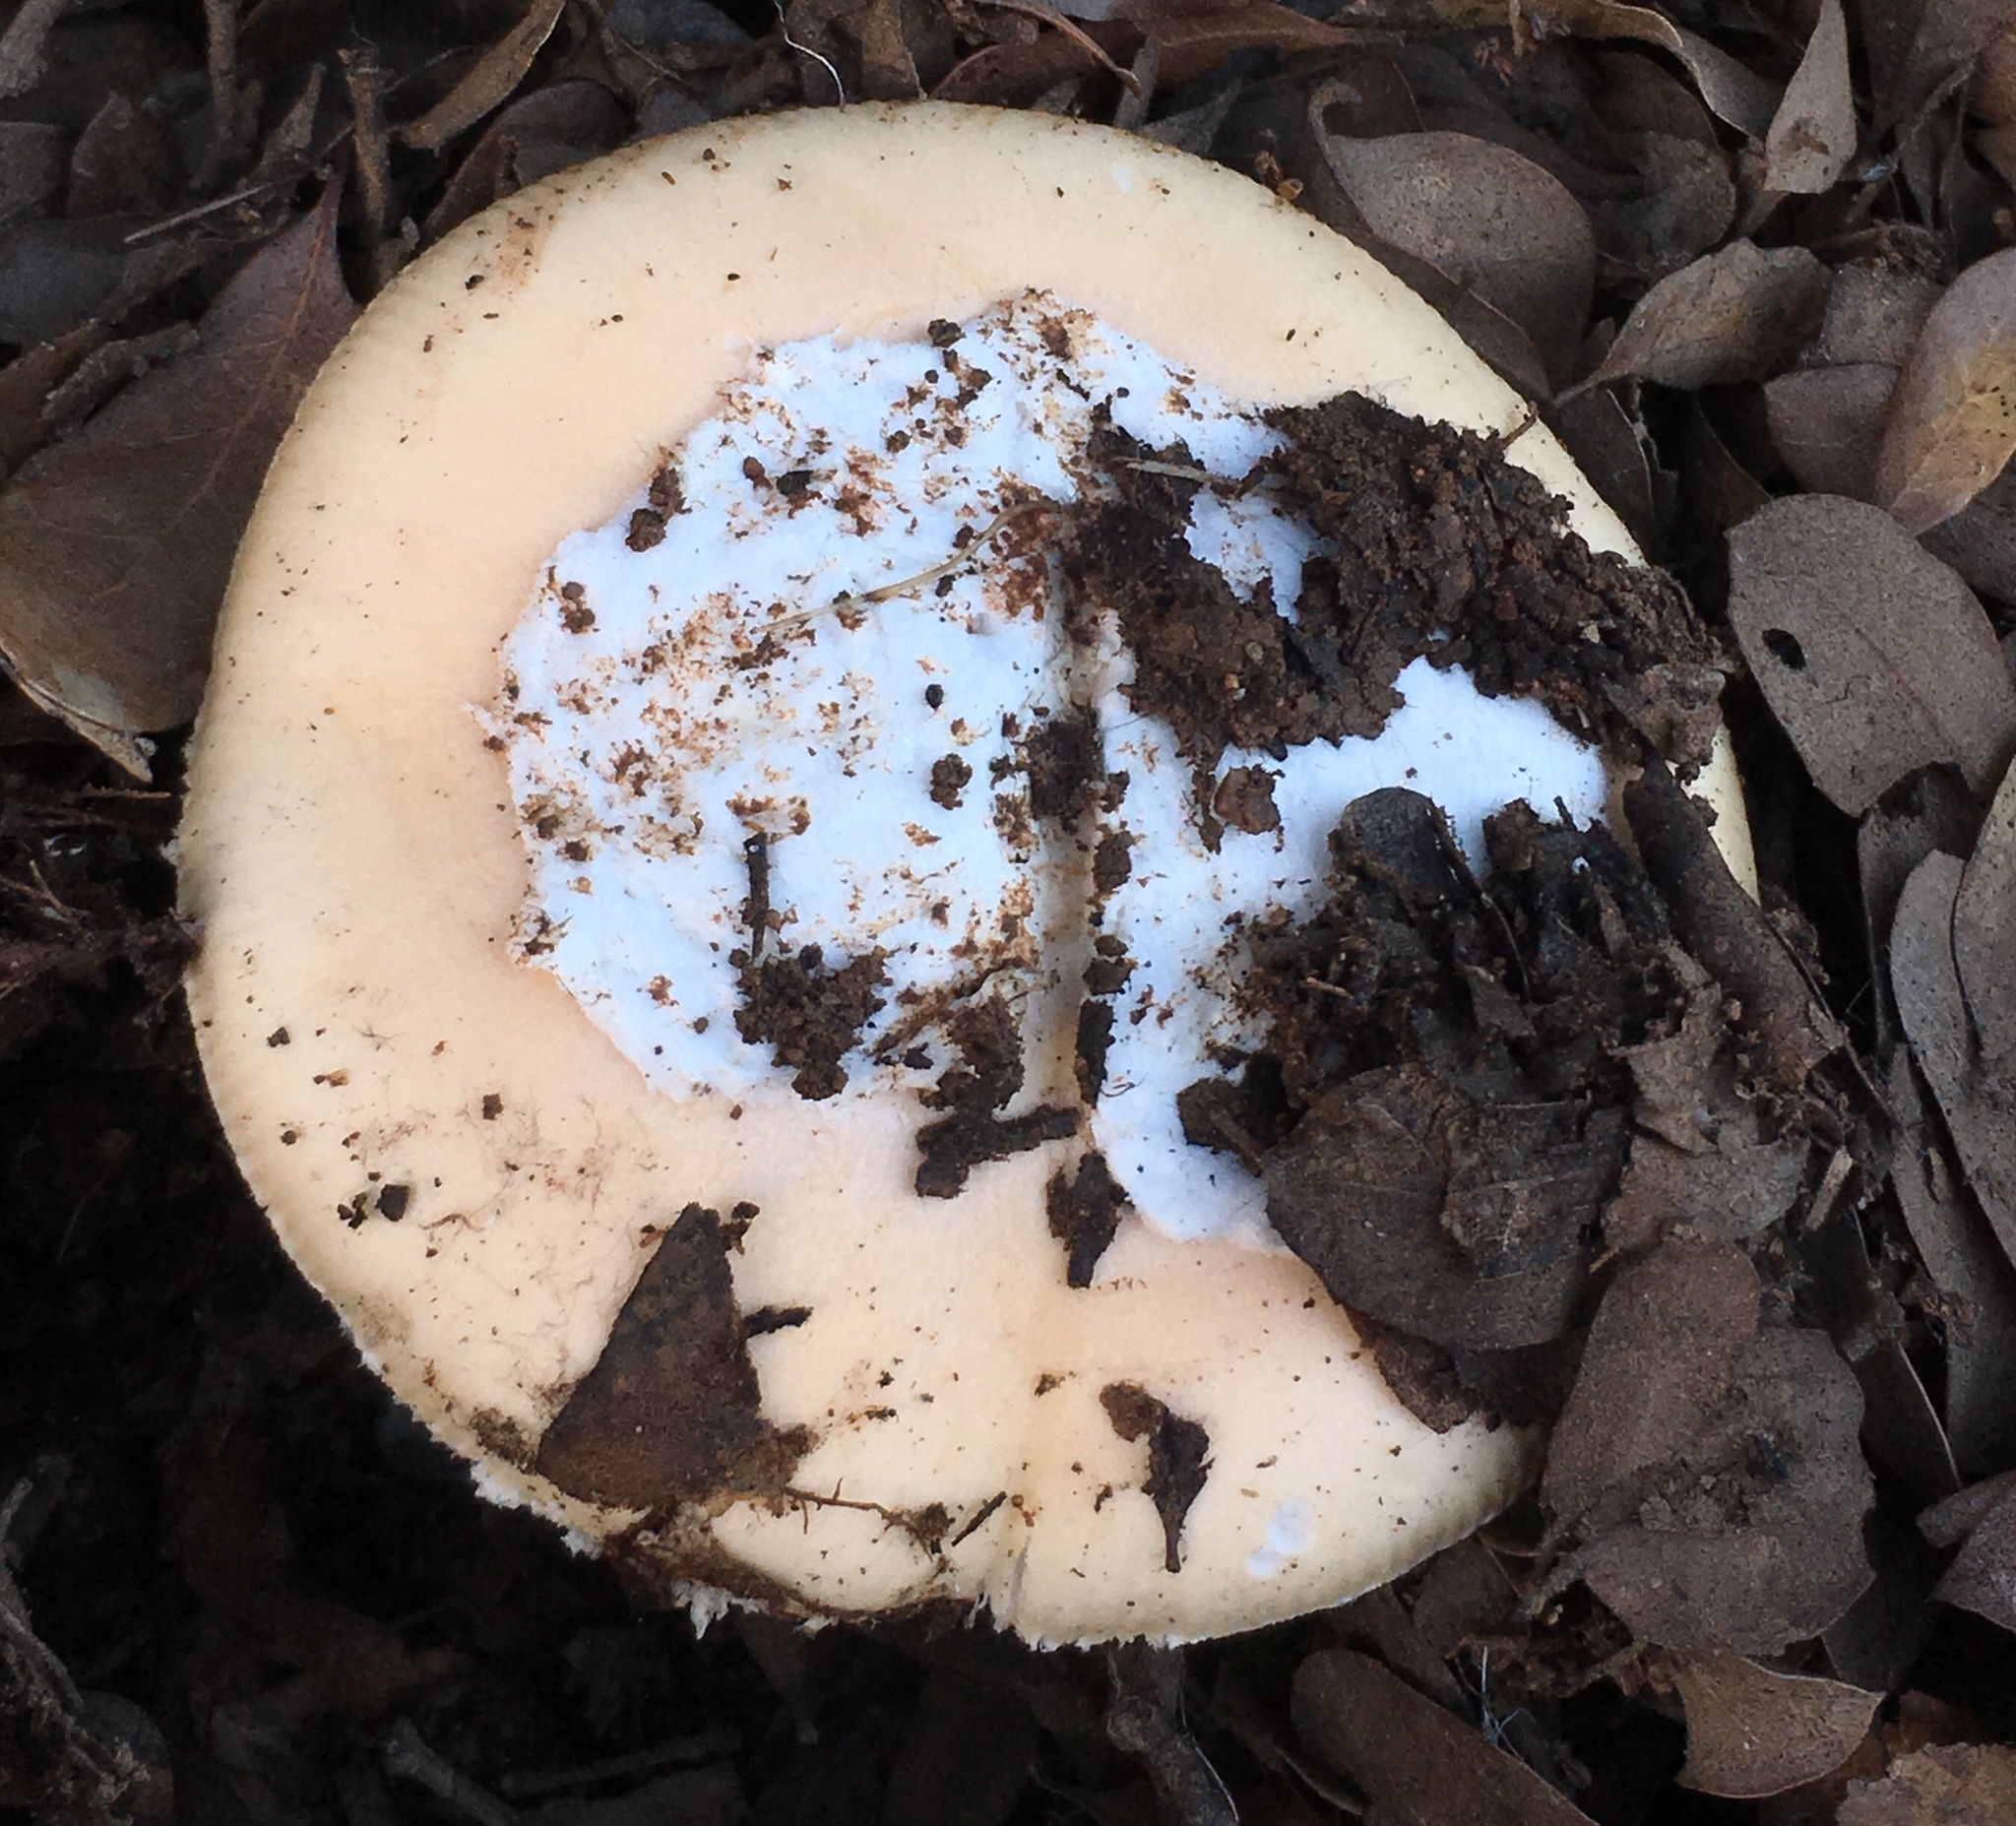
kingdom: Fungi
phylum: Basidiomycota
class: Agaricomycetes
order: Agaricales
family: Amanitaceae
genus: Amanita
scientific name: Amanita velosa
